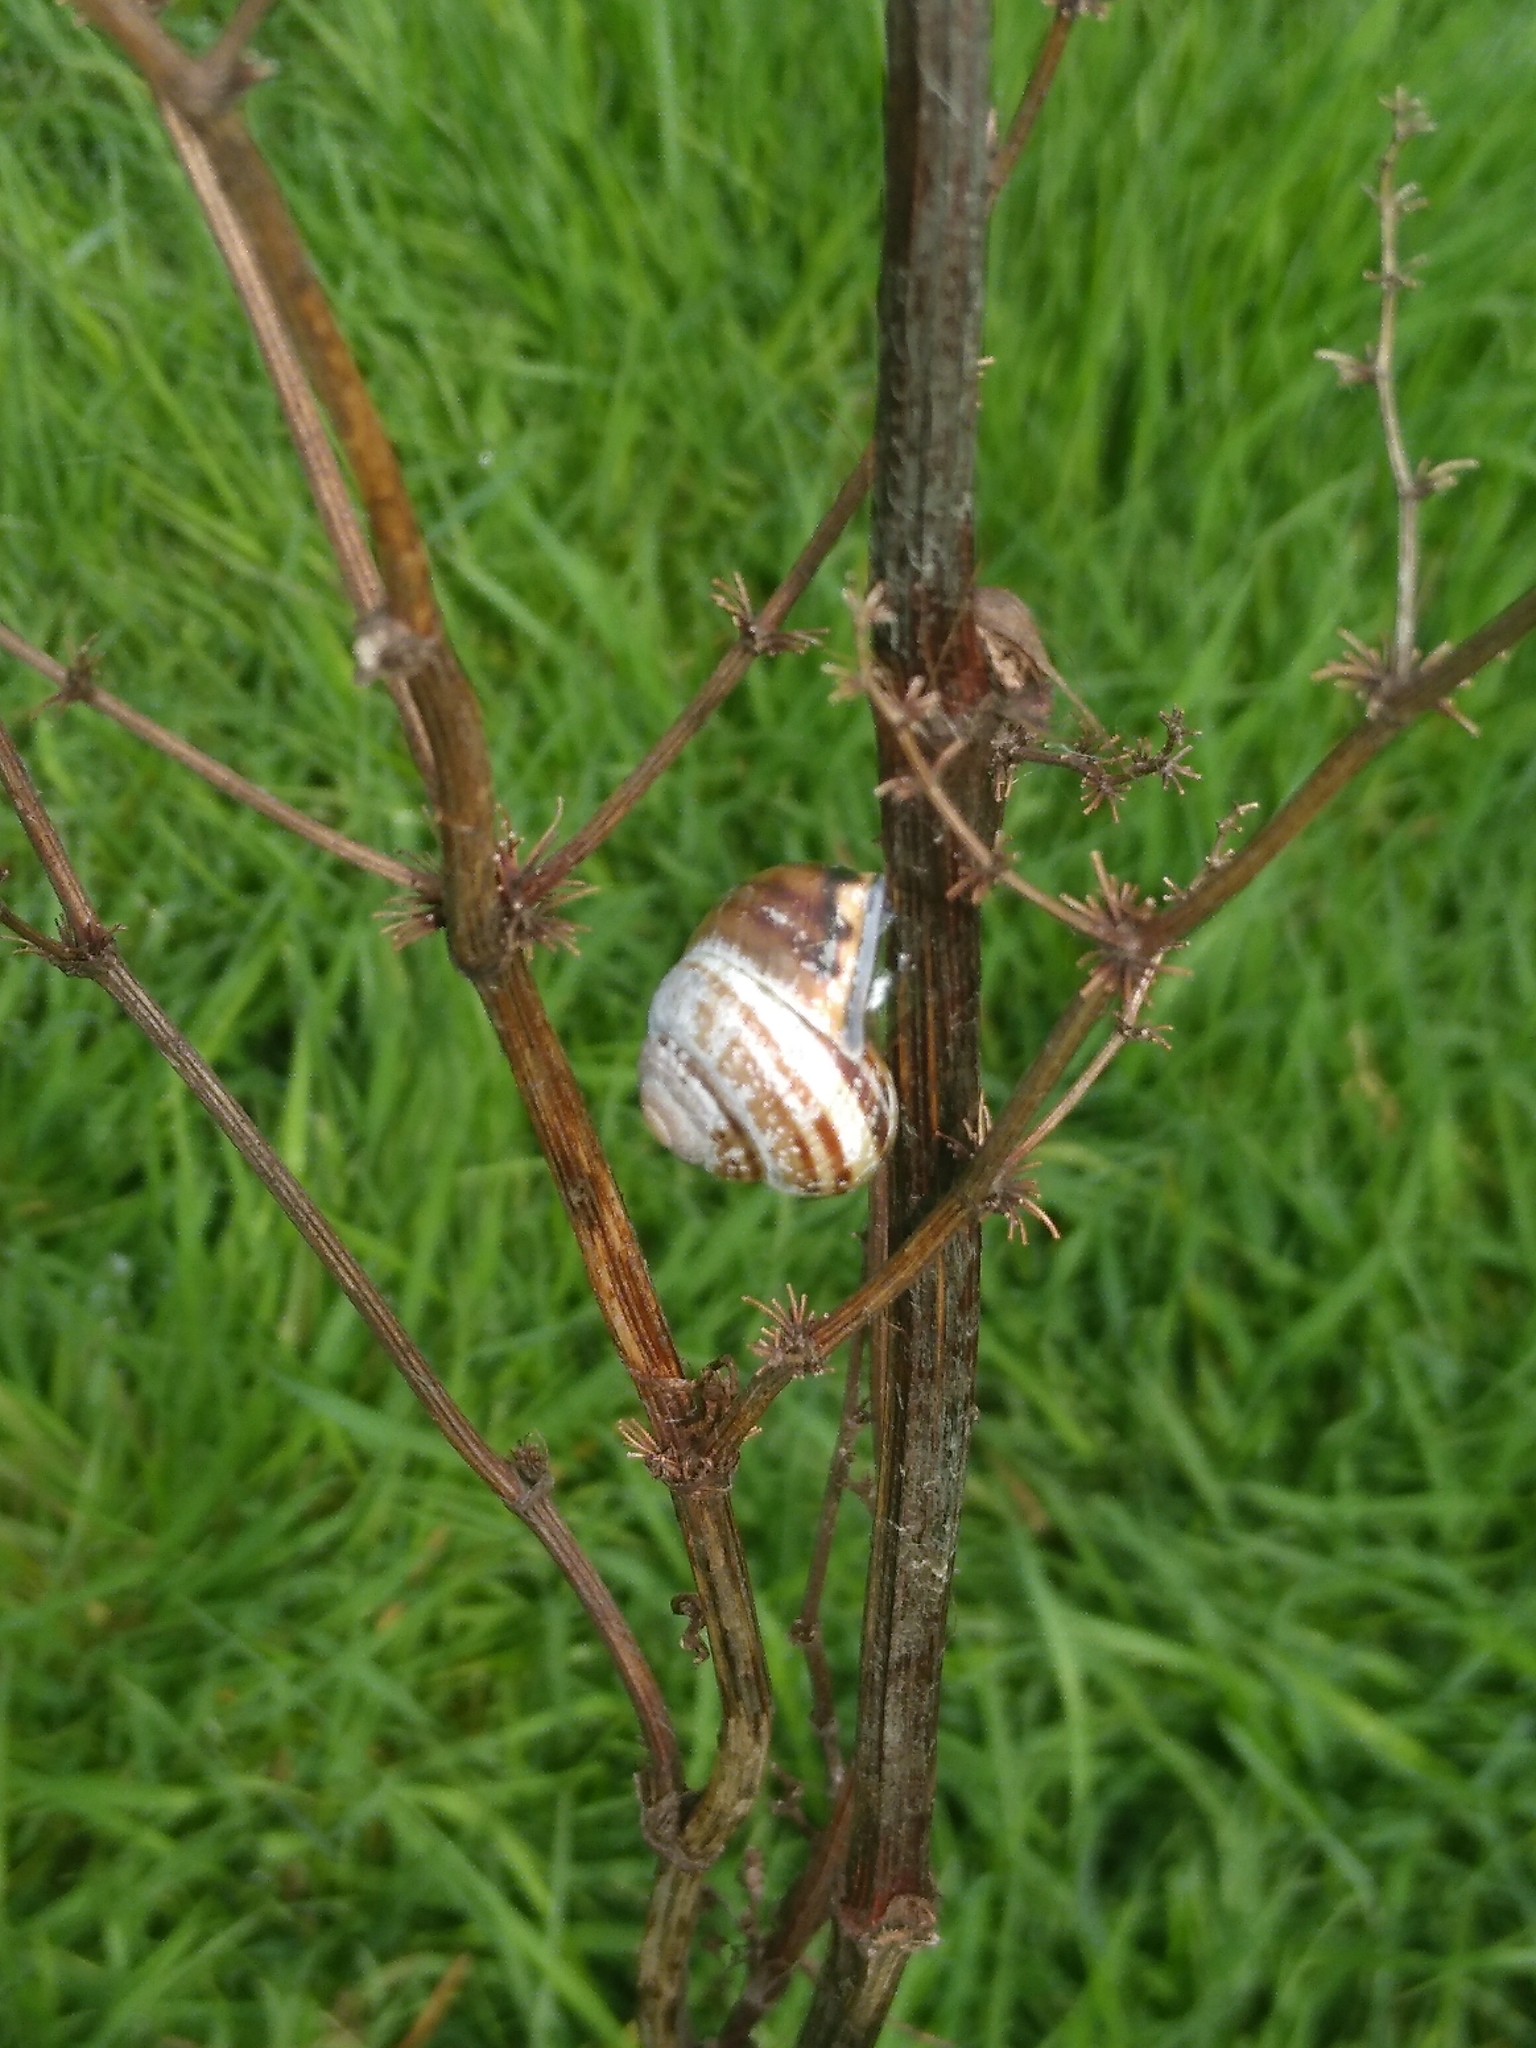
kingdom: Animalia
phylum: Mollusca
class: Gastropoda
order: Stylommatophora
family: Helicidae
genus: Cepaea
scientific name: Cepaea nemoralis
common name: Grovesnail
